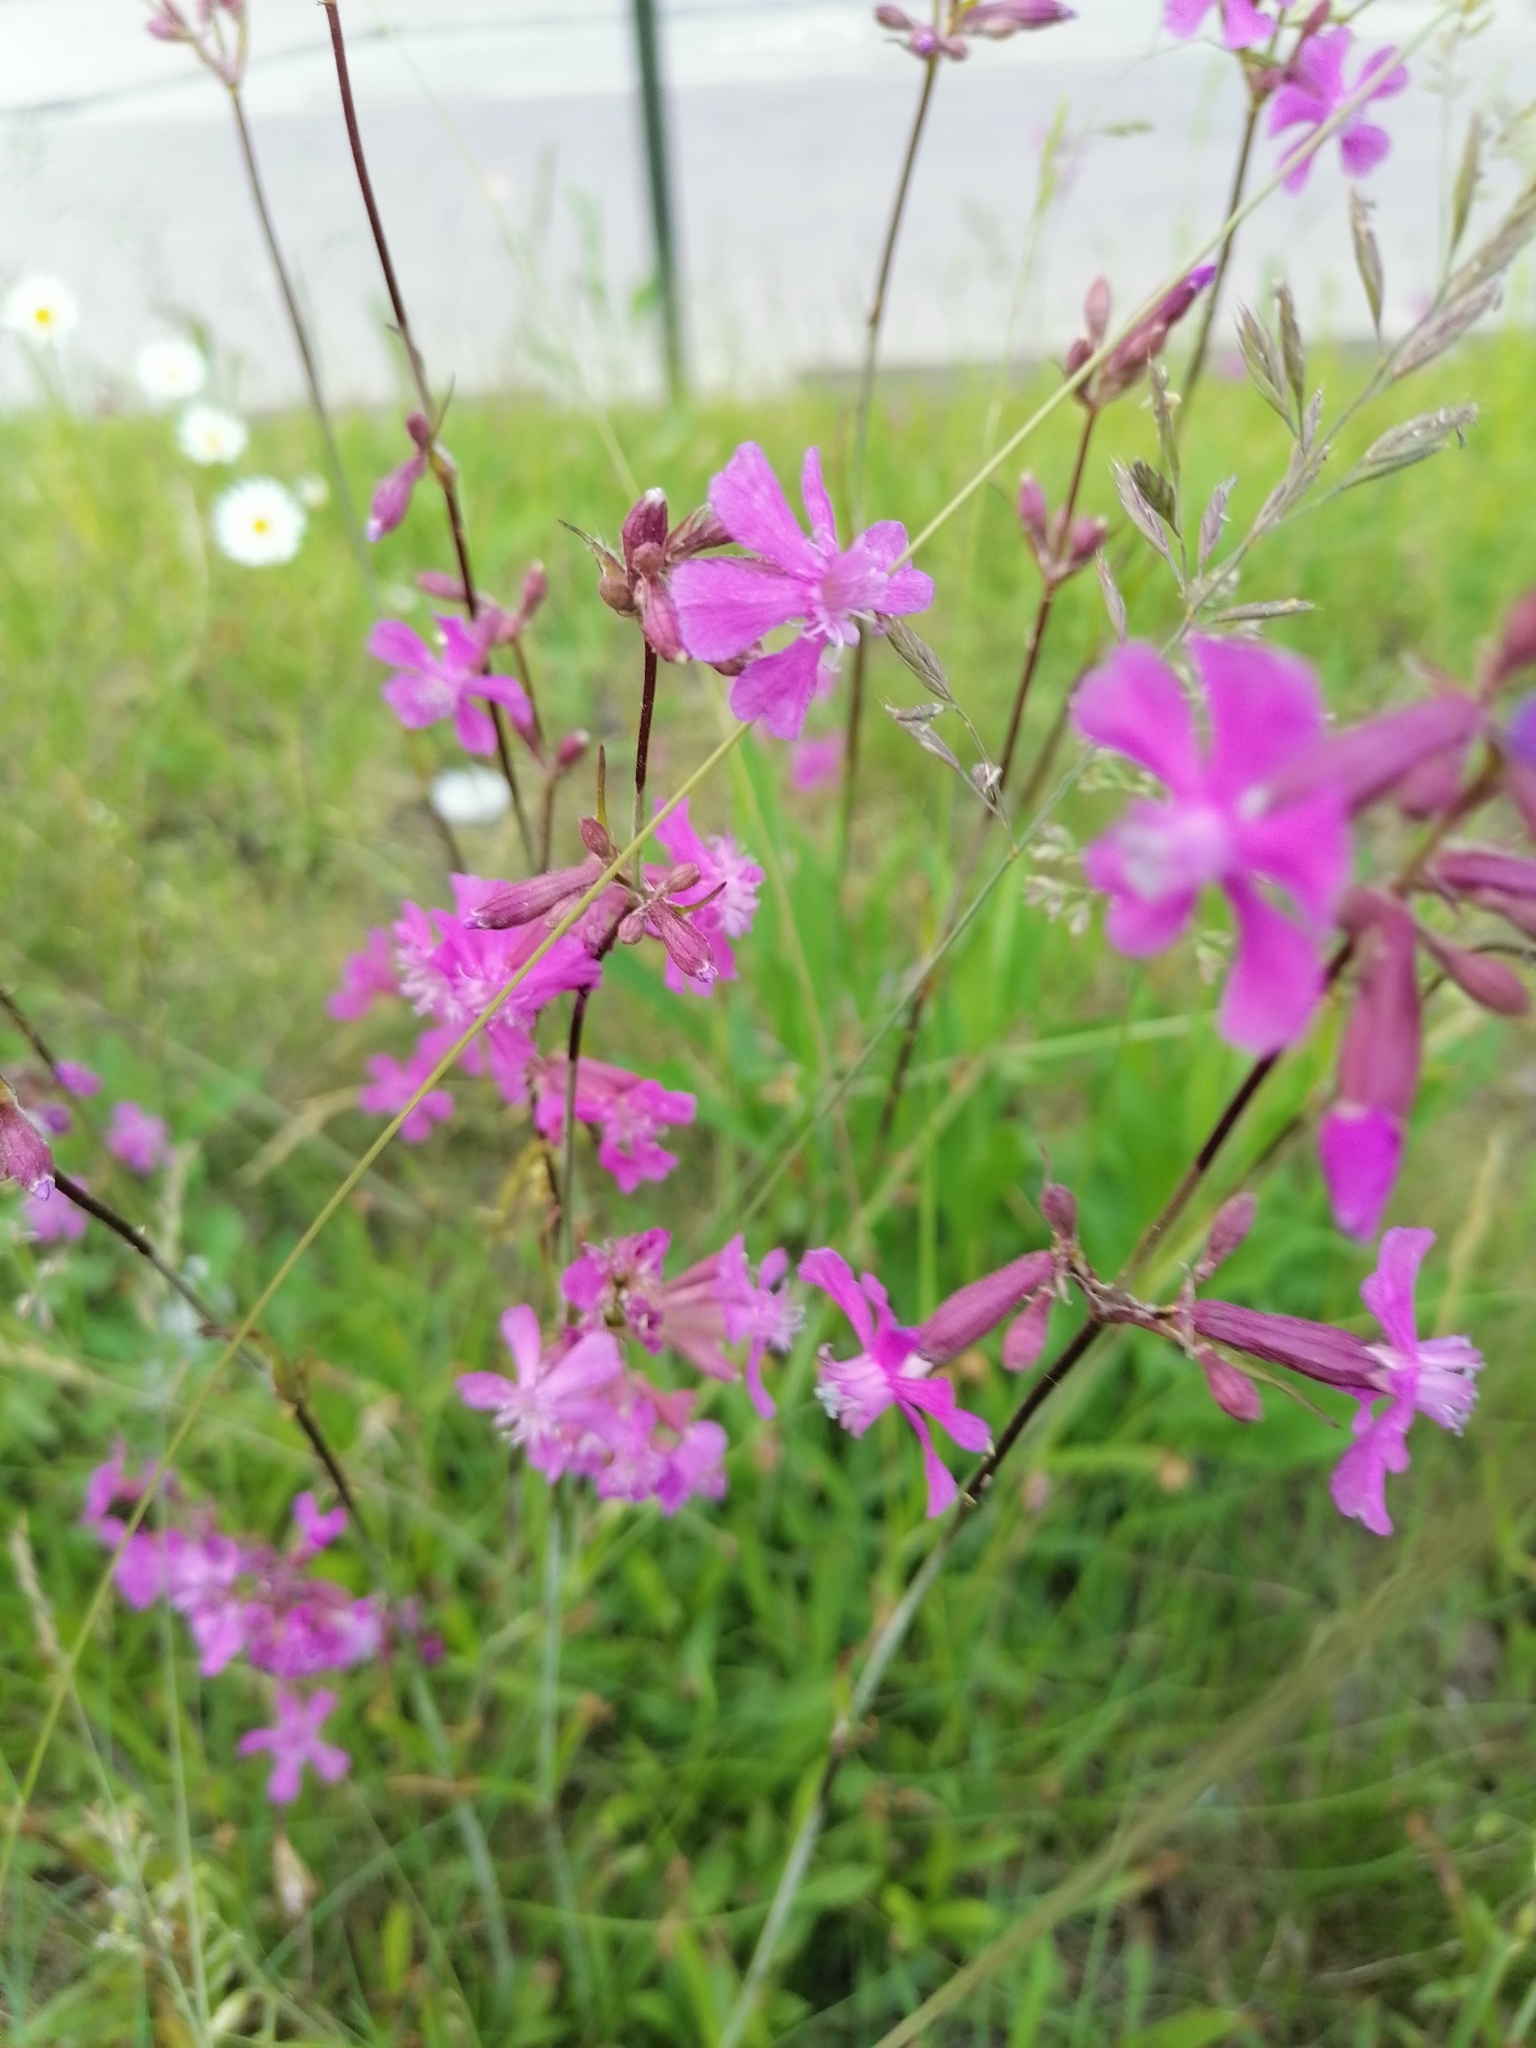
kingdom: Plantae
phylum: Tracheophyta
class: Magnoliopsida
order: Caryophyllales
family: Caryophyllaceae
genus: Viscaria
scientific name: Viscaria vulgaris
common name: Clammy campion
